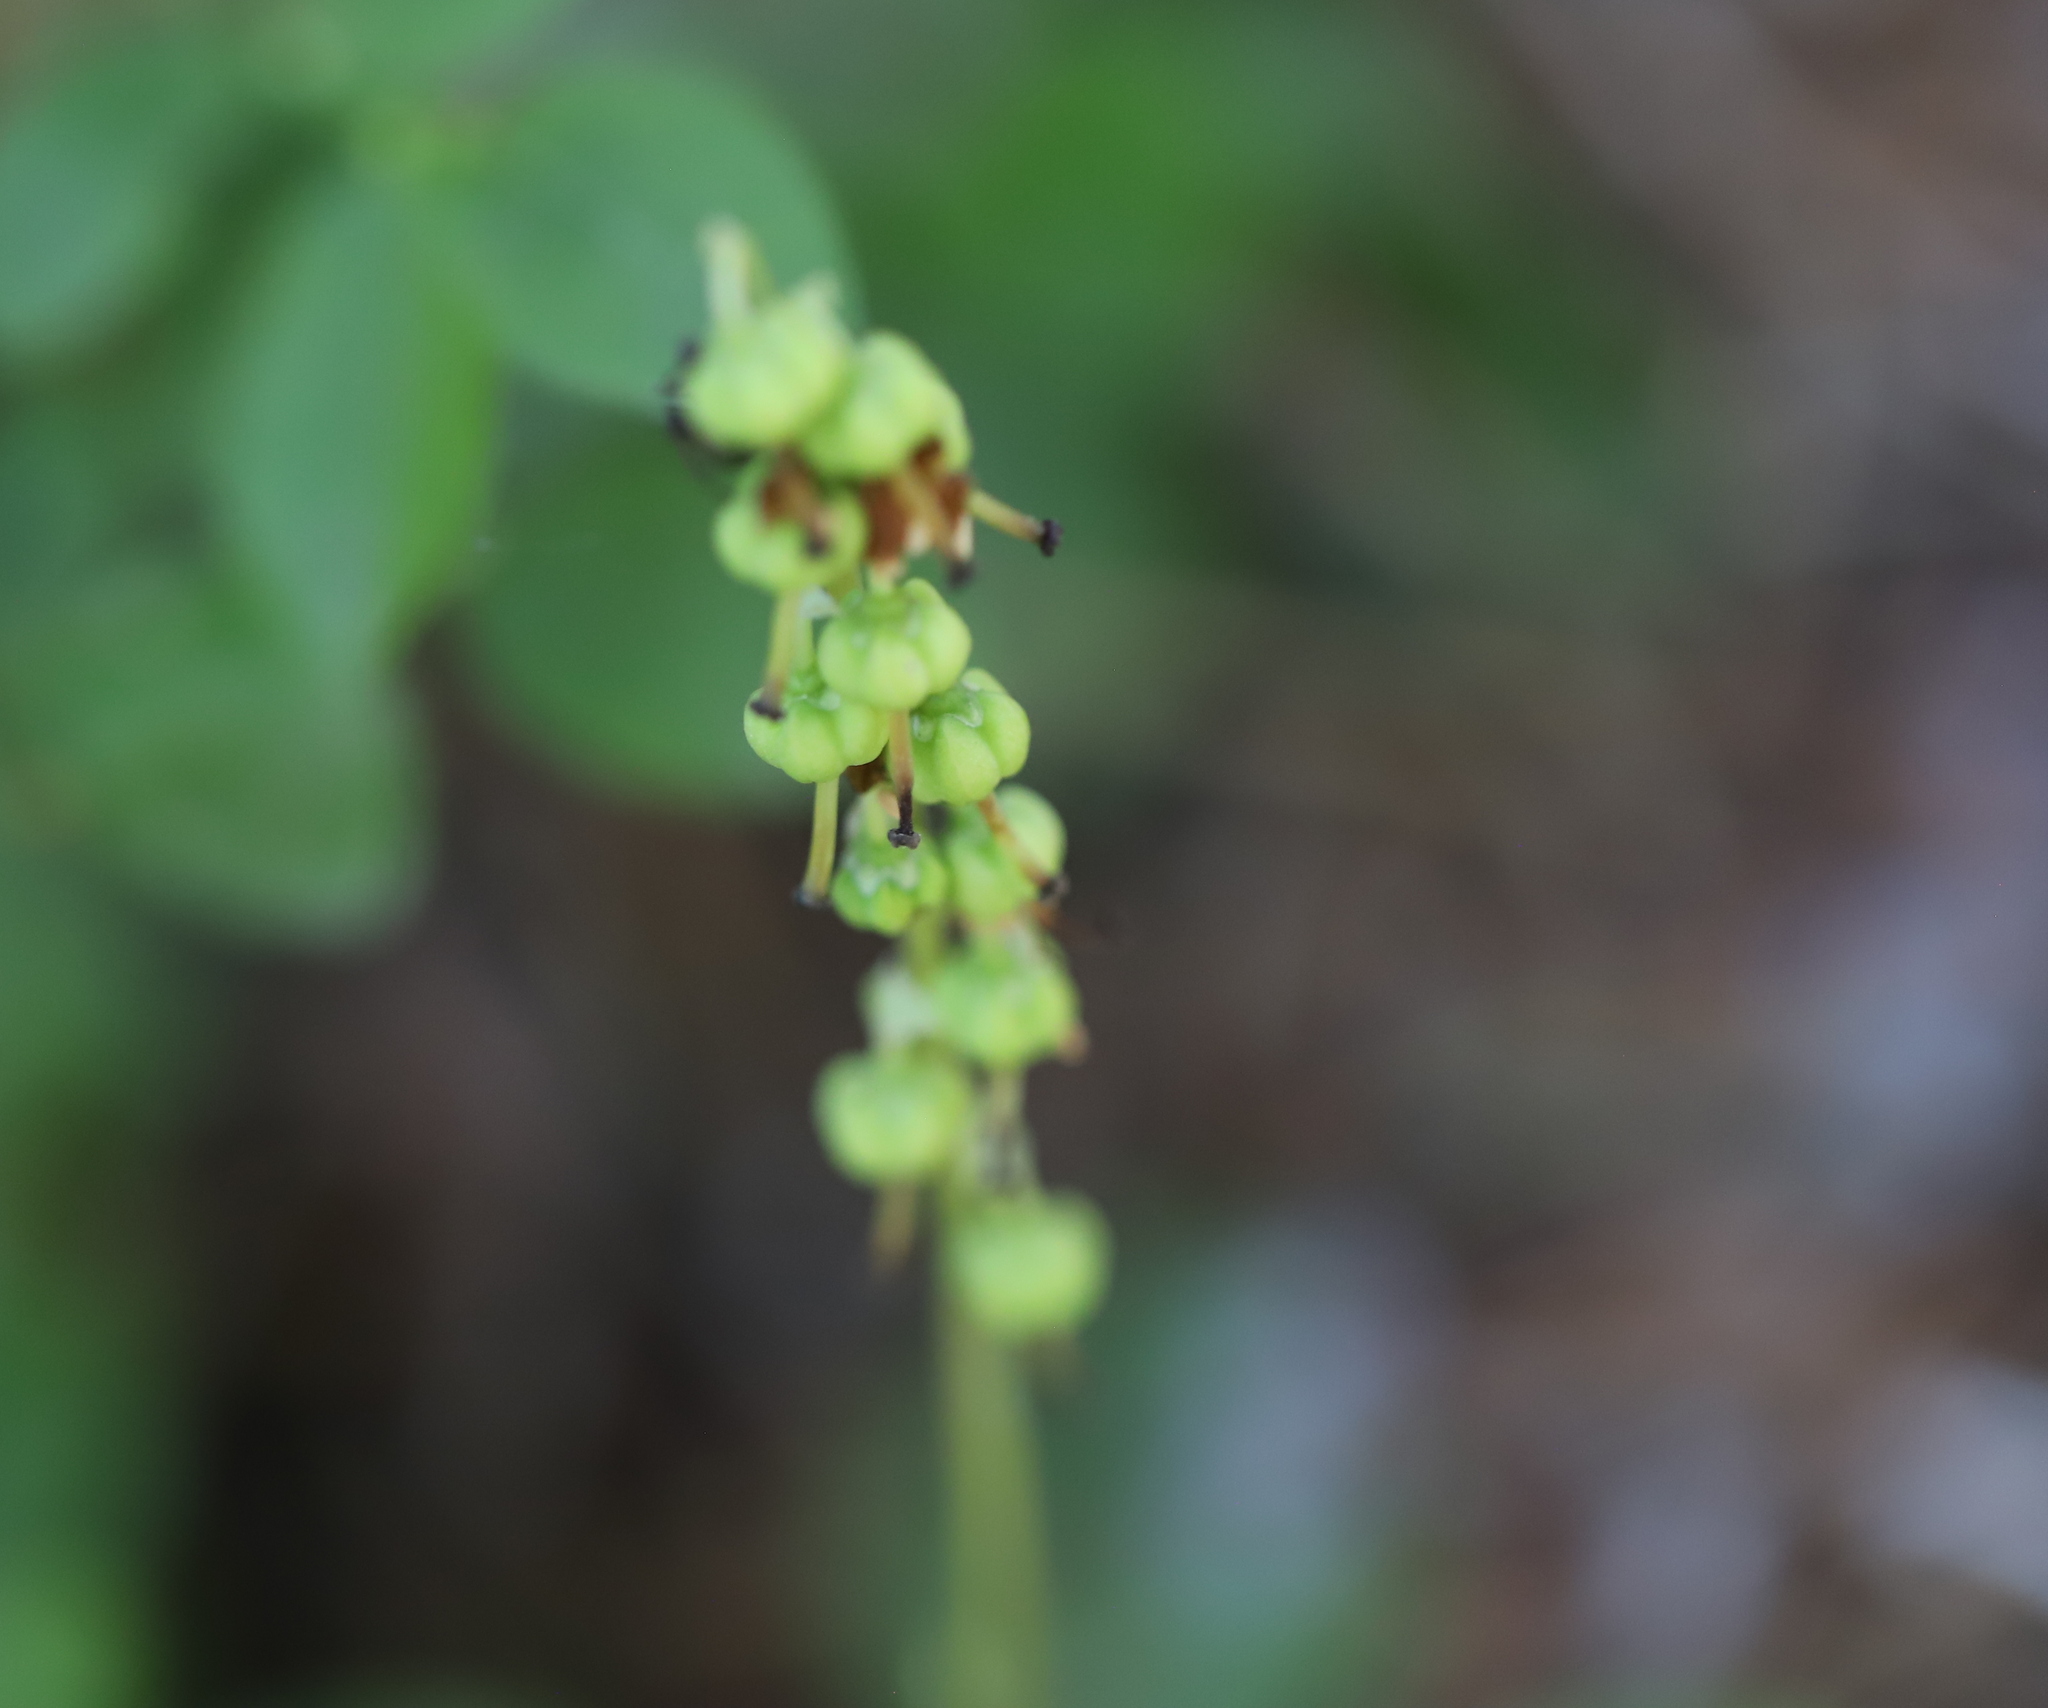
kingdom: Plantae
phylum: Tracheophyta
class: Magnoliopsida
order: Ericales
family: Ericaceae
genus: Orthilia
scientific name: Orthilia secunda
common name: One-sided orthilia
